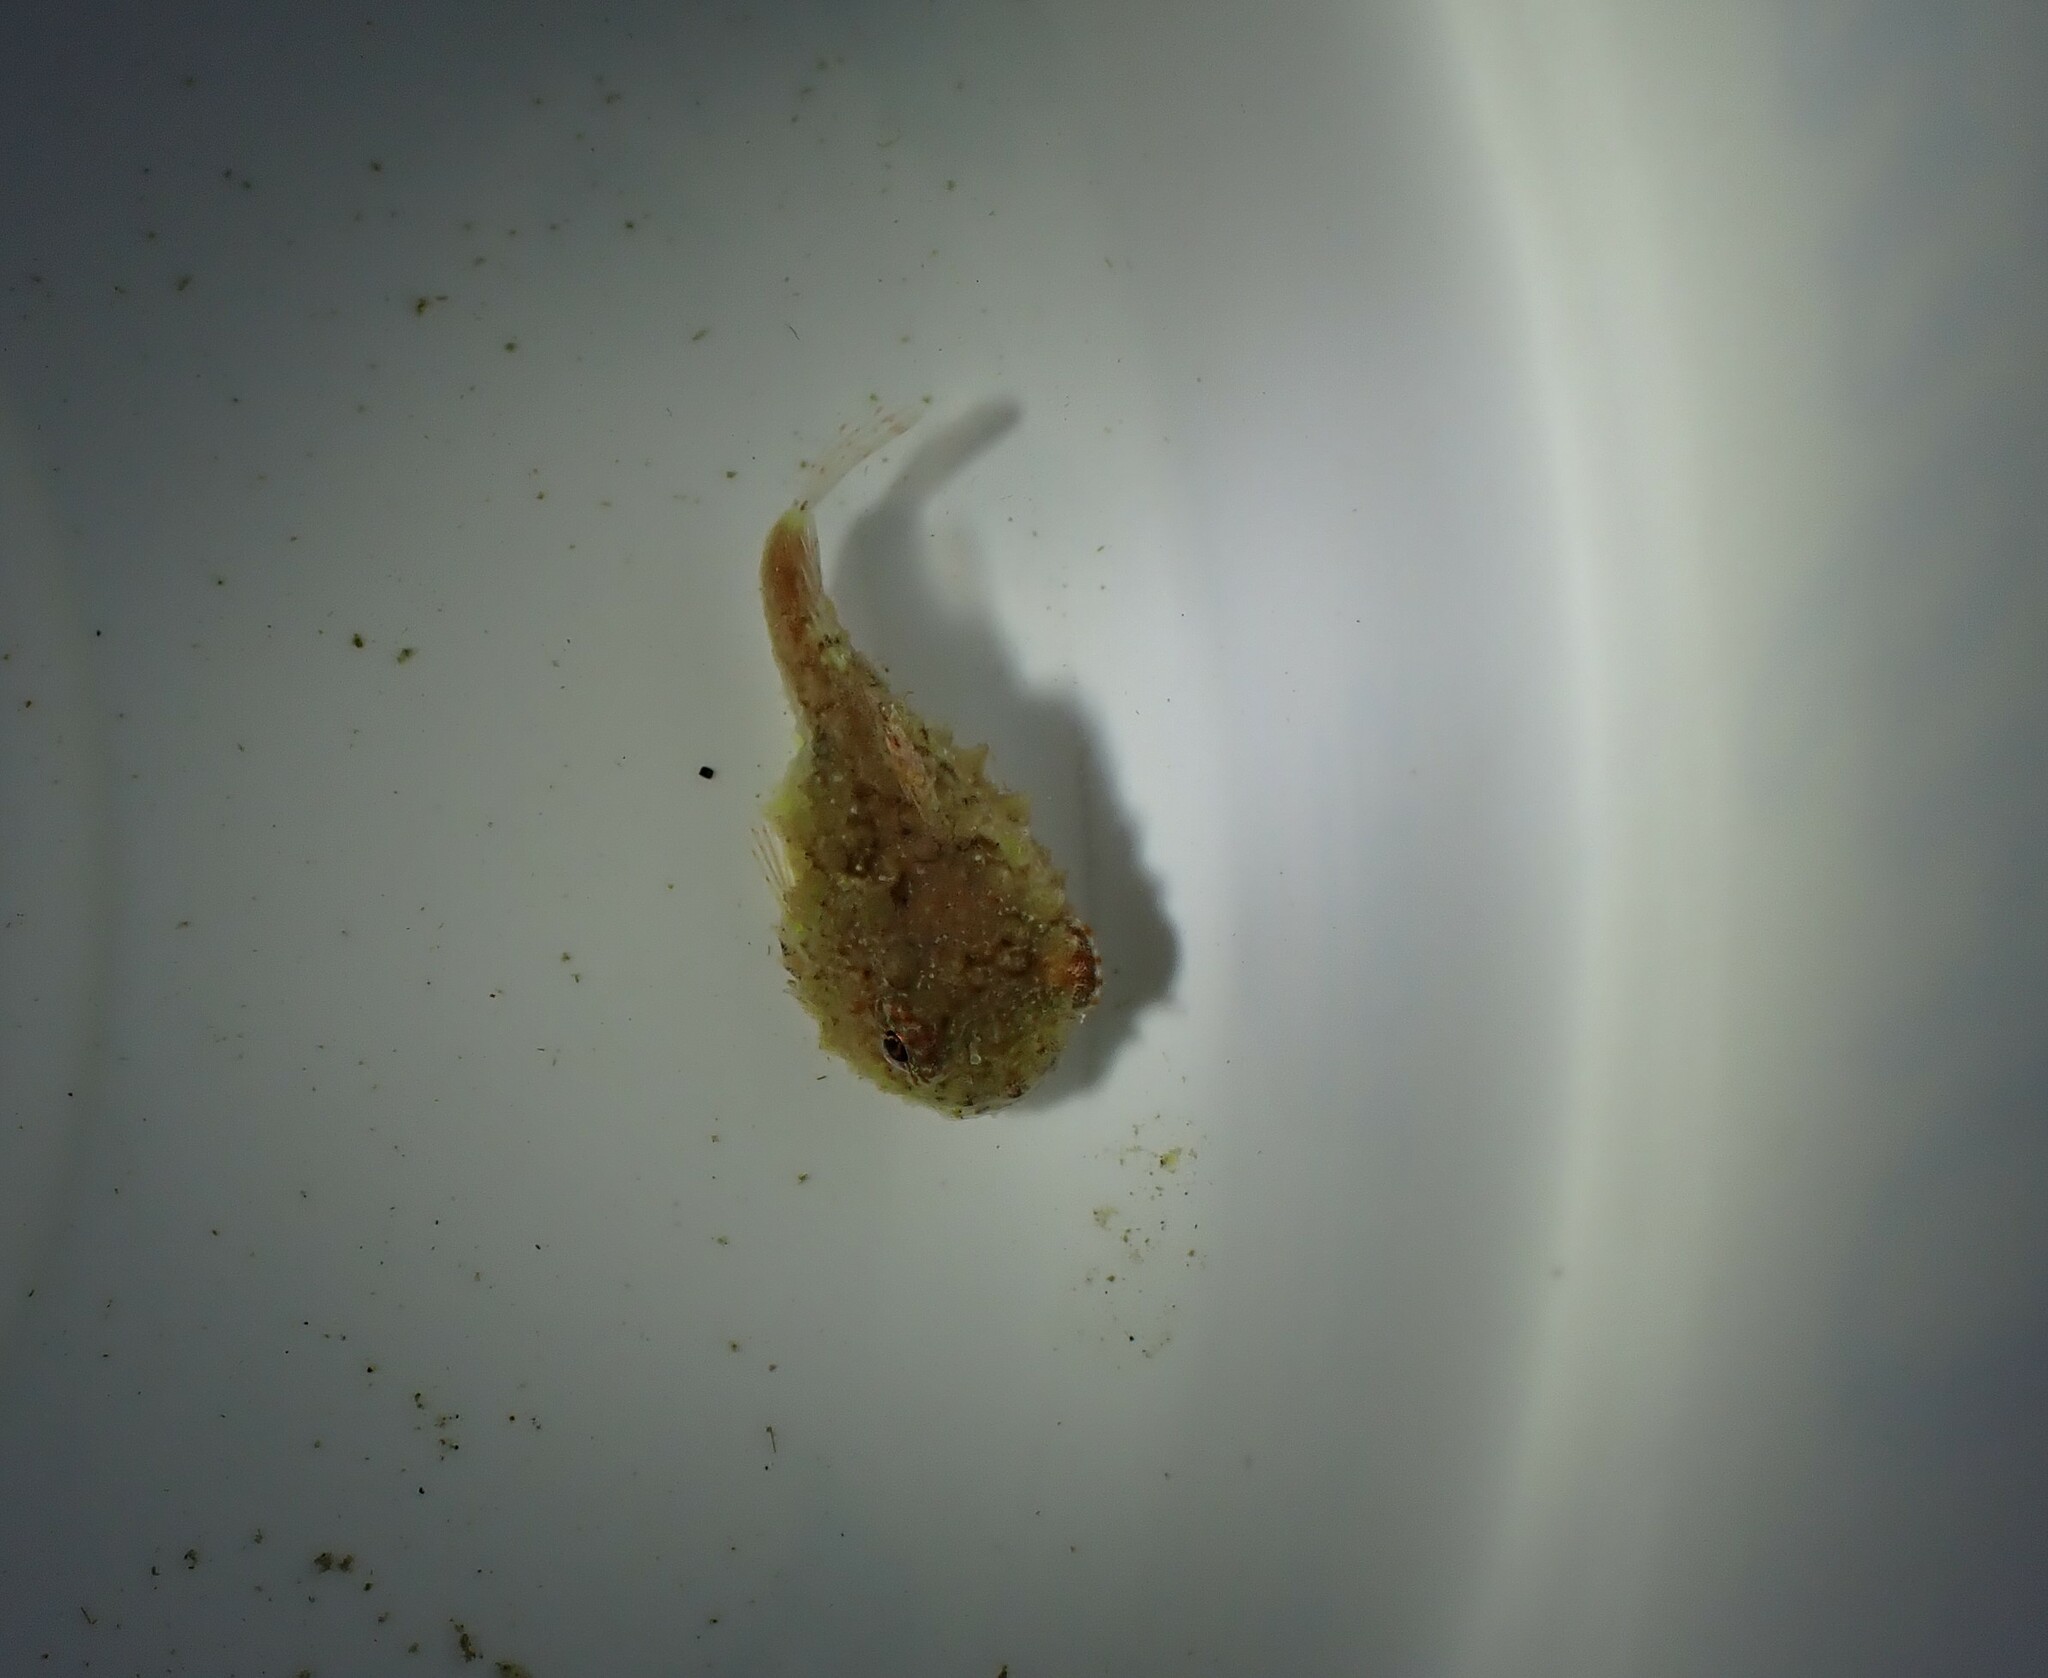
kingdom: Animalia
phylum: Chordata
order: Scorpaeniformes
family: Cyclopteridae
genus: Eumicrotremus
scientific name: Eumicrotremus orbis
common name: Pacific spiny lumpsucker
